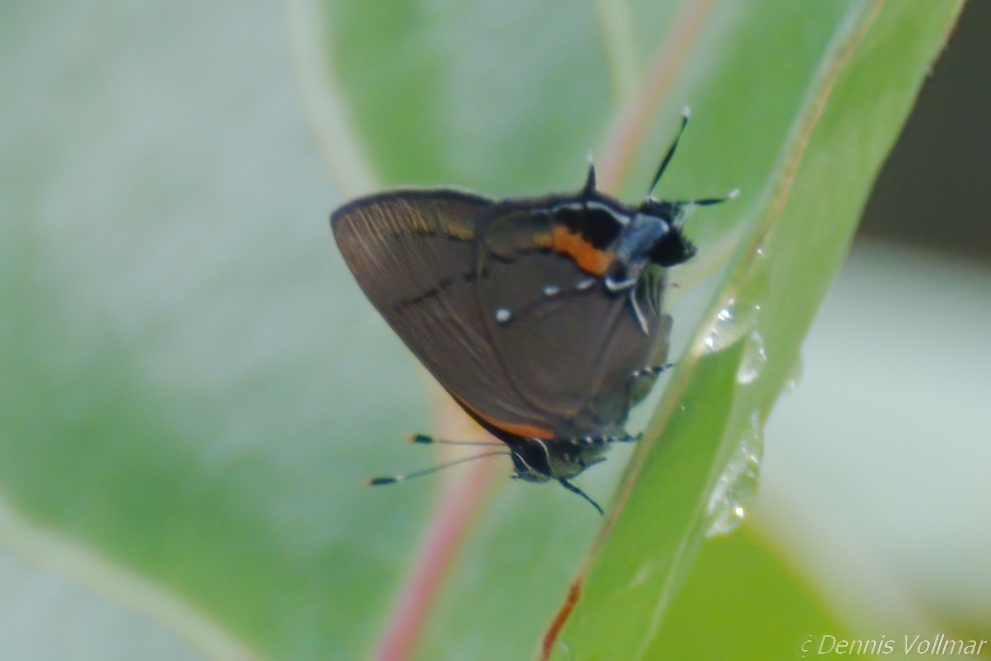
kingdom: Animalia
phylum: Arthropoda
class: Insecta
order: Lepidoptera
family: Lycaenidae
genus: Thecla
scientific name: Thecla angelia
